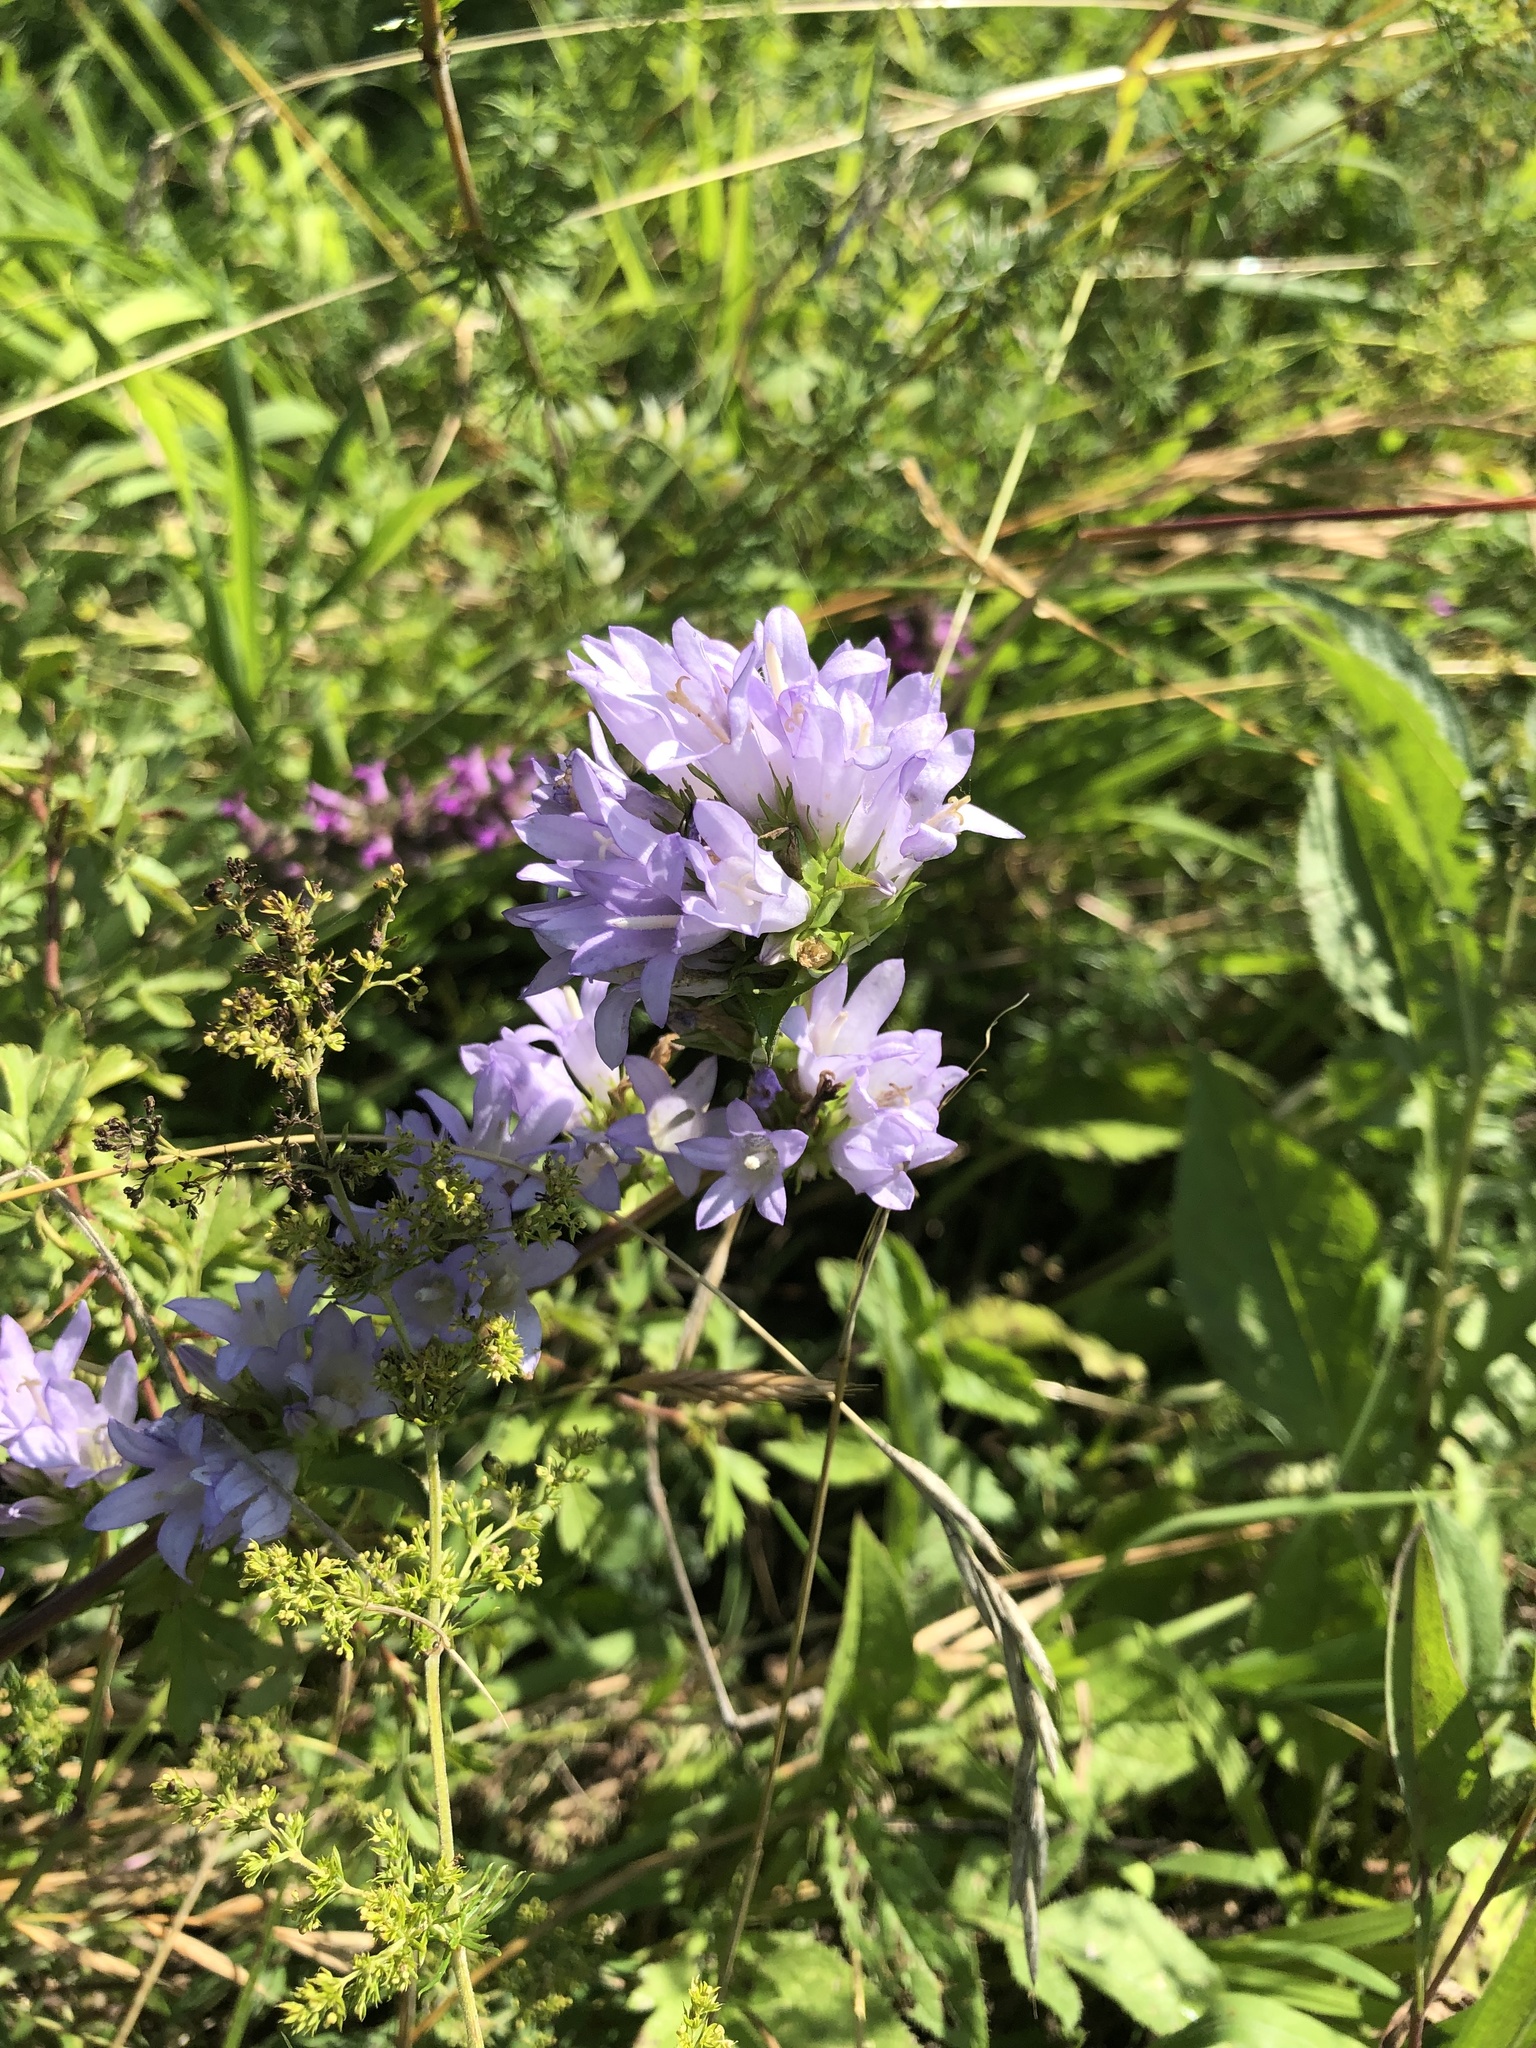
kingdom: Plantae
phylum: Tracheophyta
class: Magnoliopsida
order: Asterales
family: Campanulaceae
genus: Campanula
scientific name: Campanula glomerata
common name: Clustered bellflower
